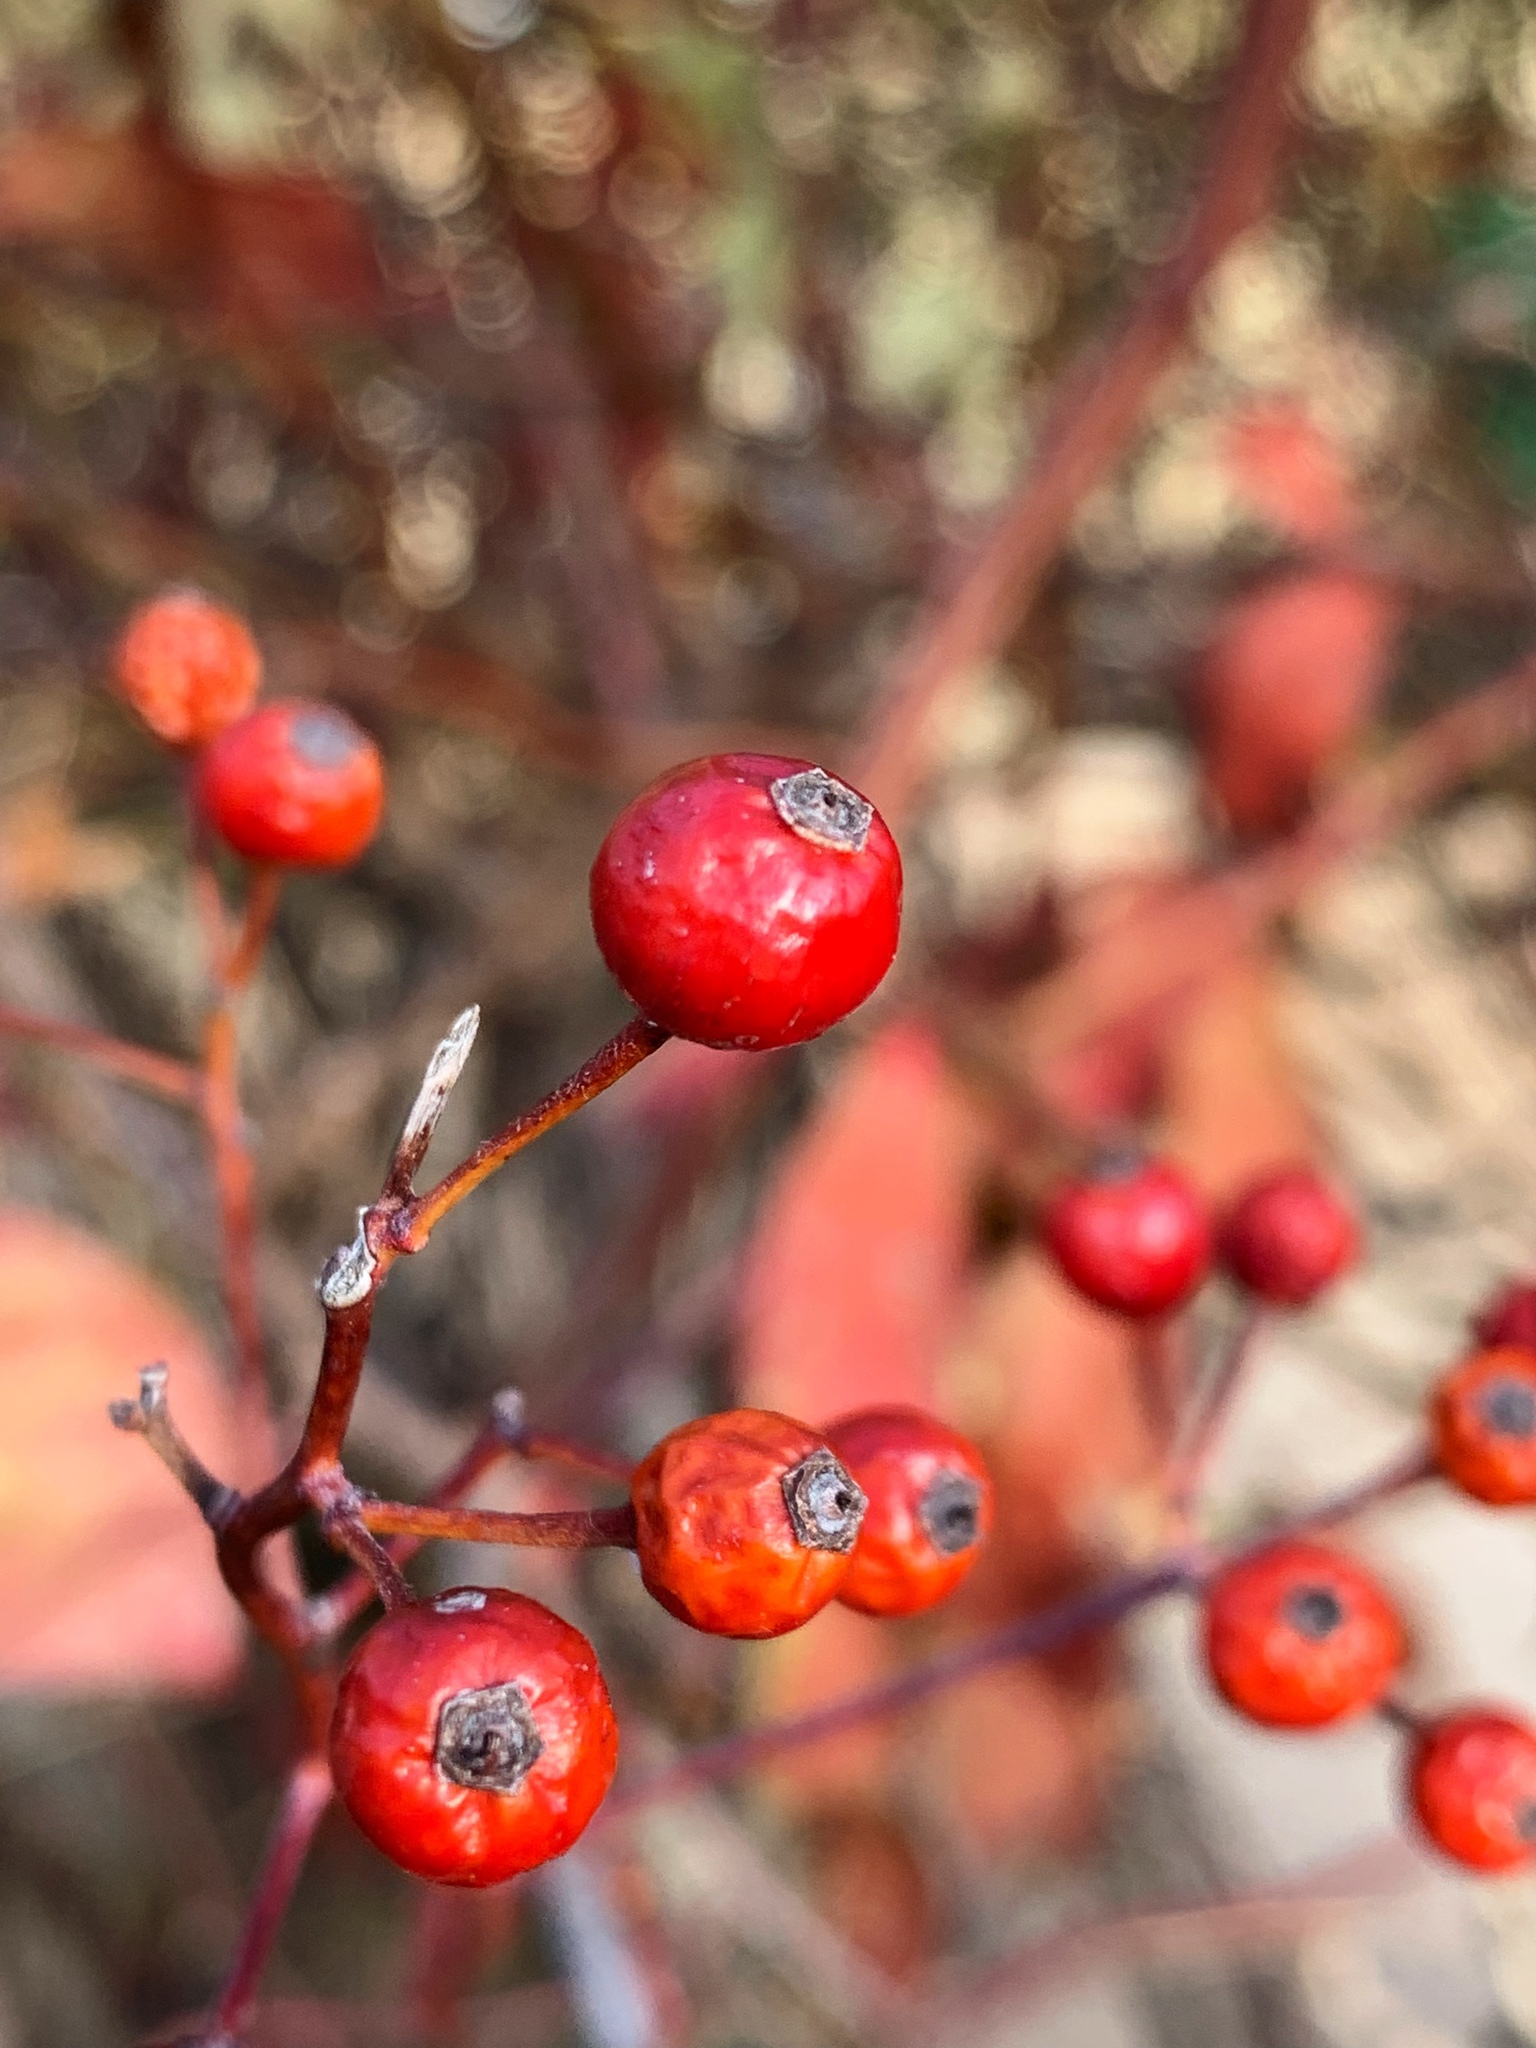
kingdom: Plantae
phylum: Tracheophyta
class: Magnoliopsida
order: Rosales
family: Rosaceae
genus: Rosa
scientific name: Rosa multiflora
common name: Multiflora rose
